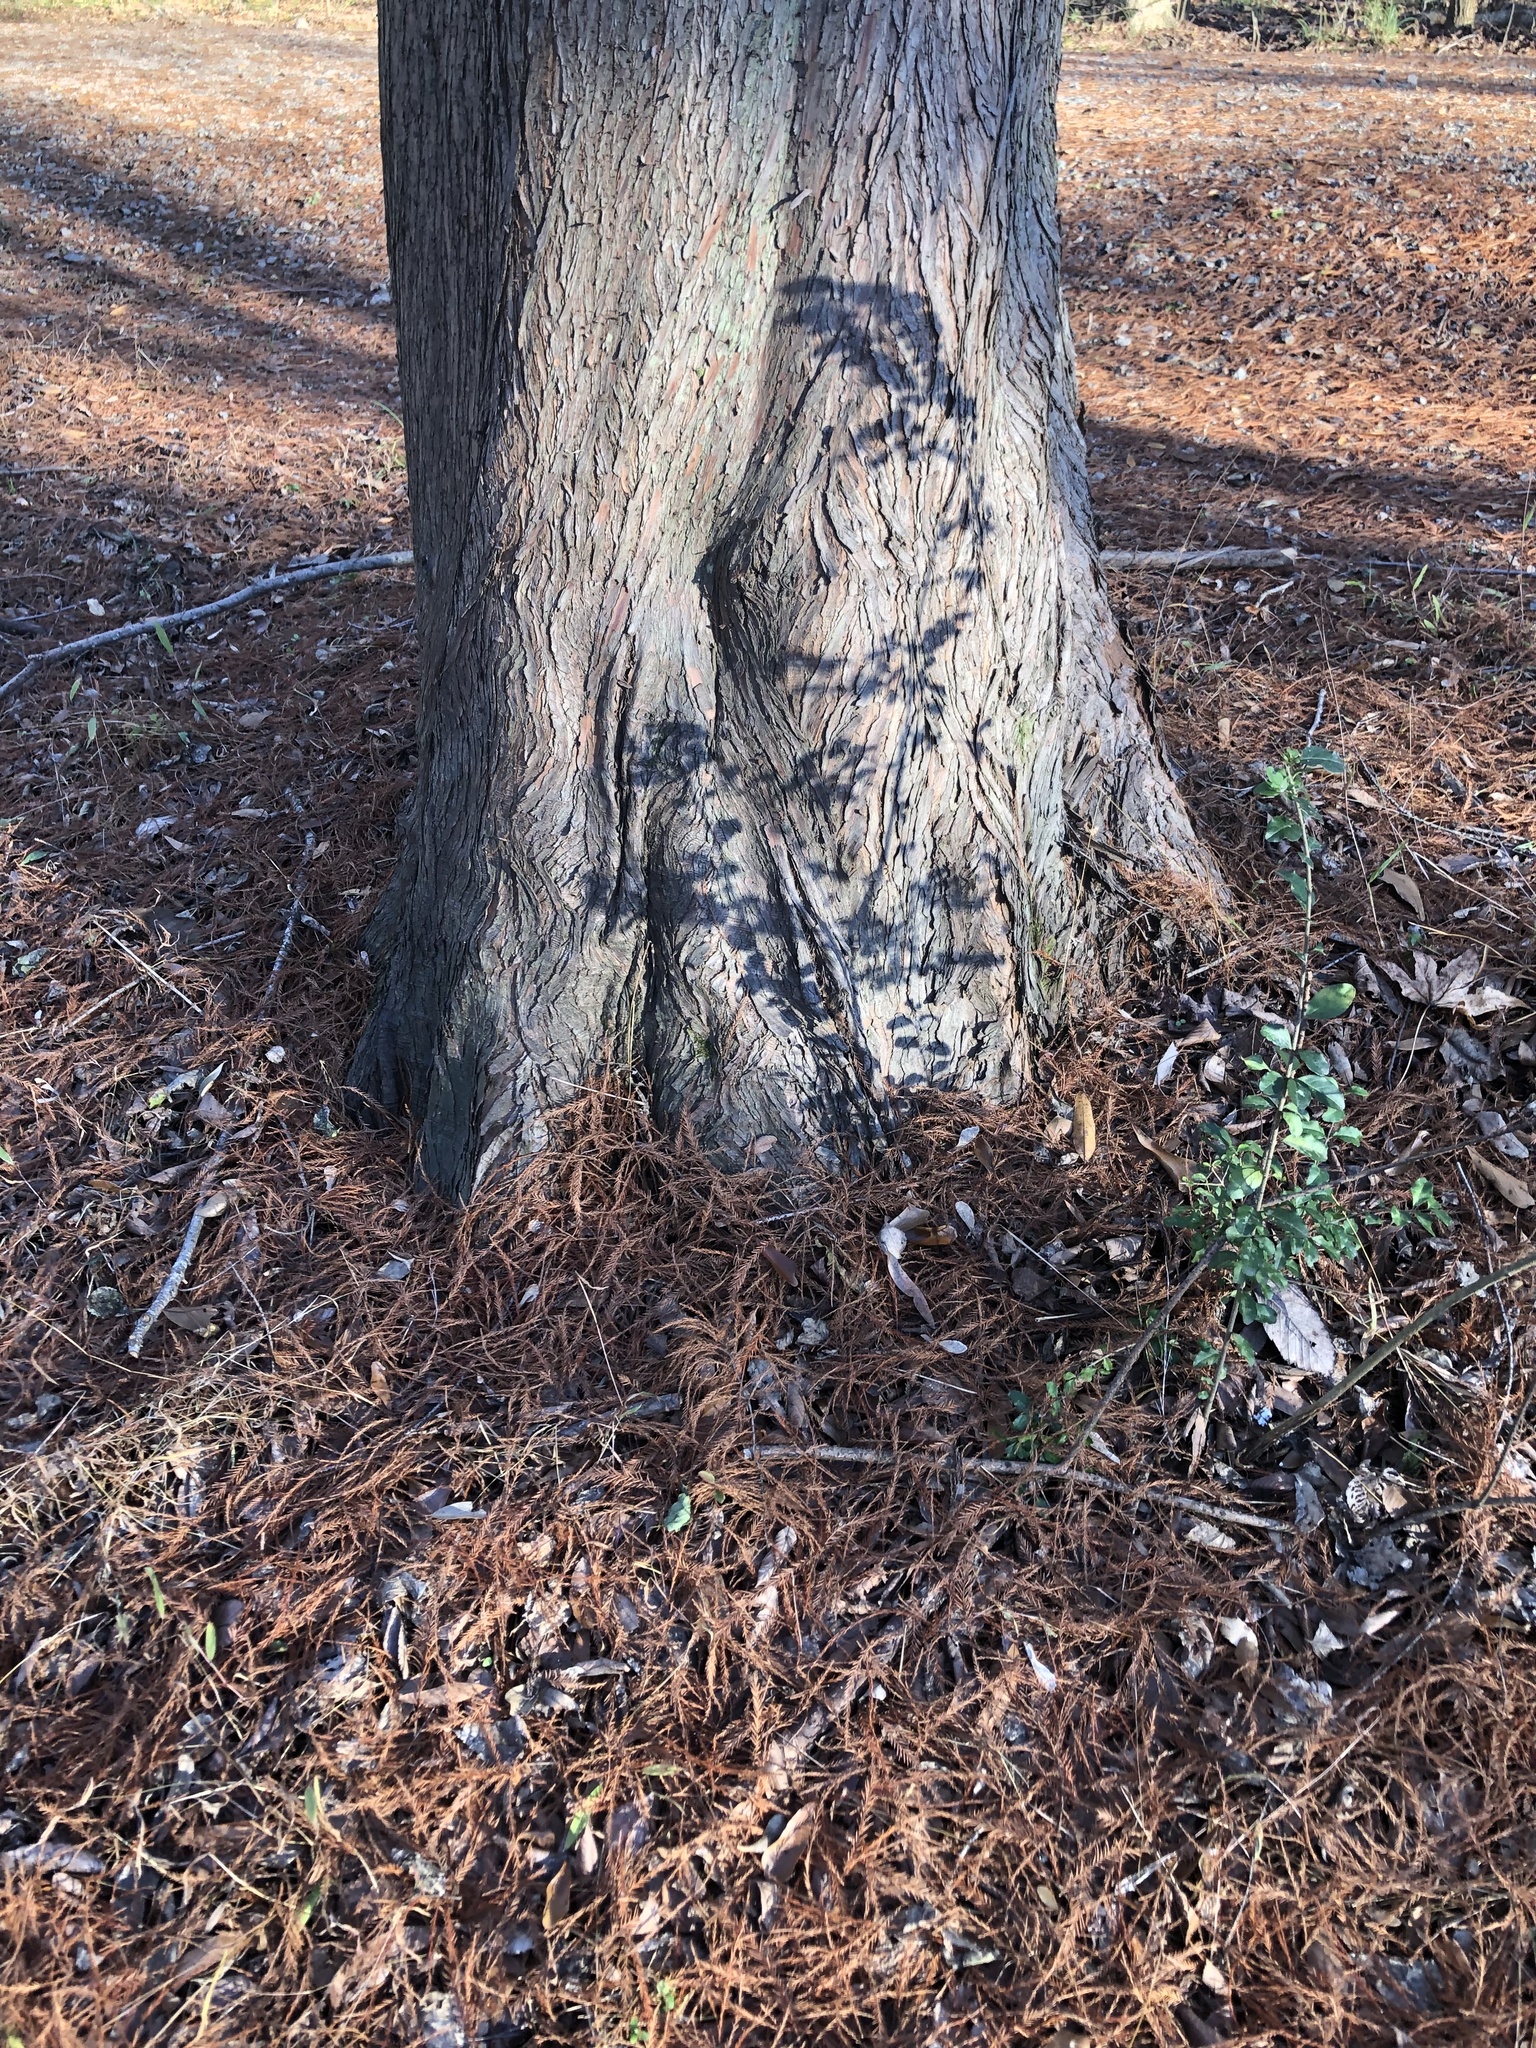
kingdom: Plantae
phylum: Tracheophyta
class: Pinopsida
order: Pinales
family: Cupressaceae
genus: Taxodium
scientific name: Taxodium distichum
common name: Bald cypress
